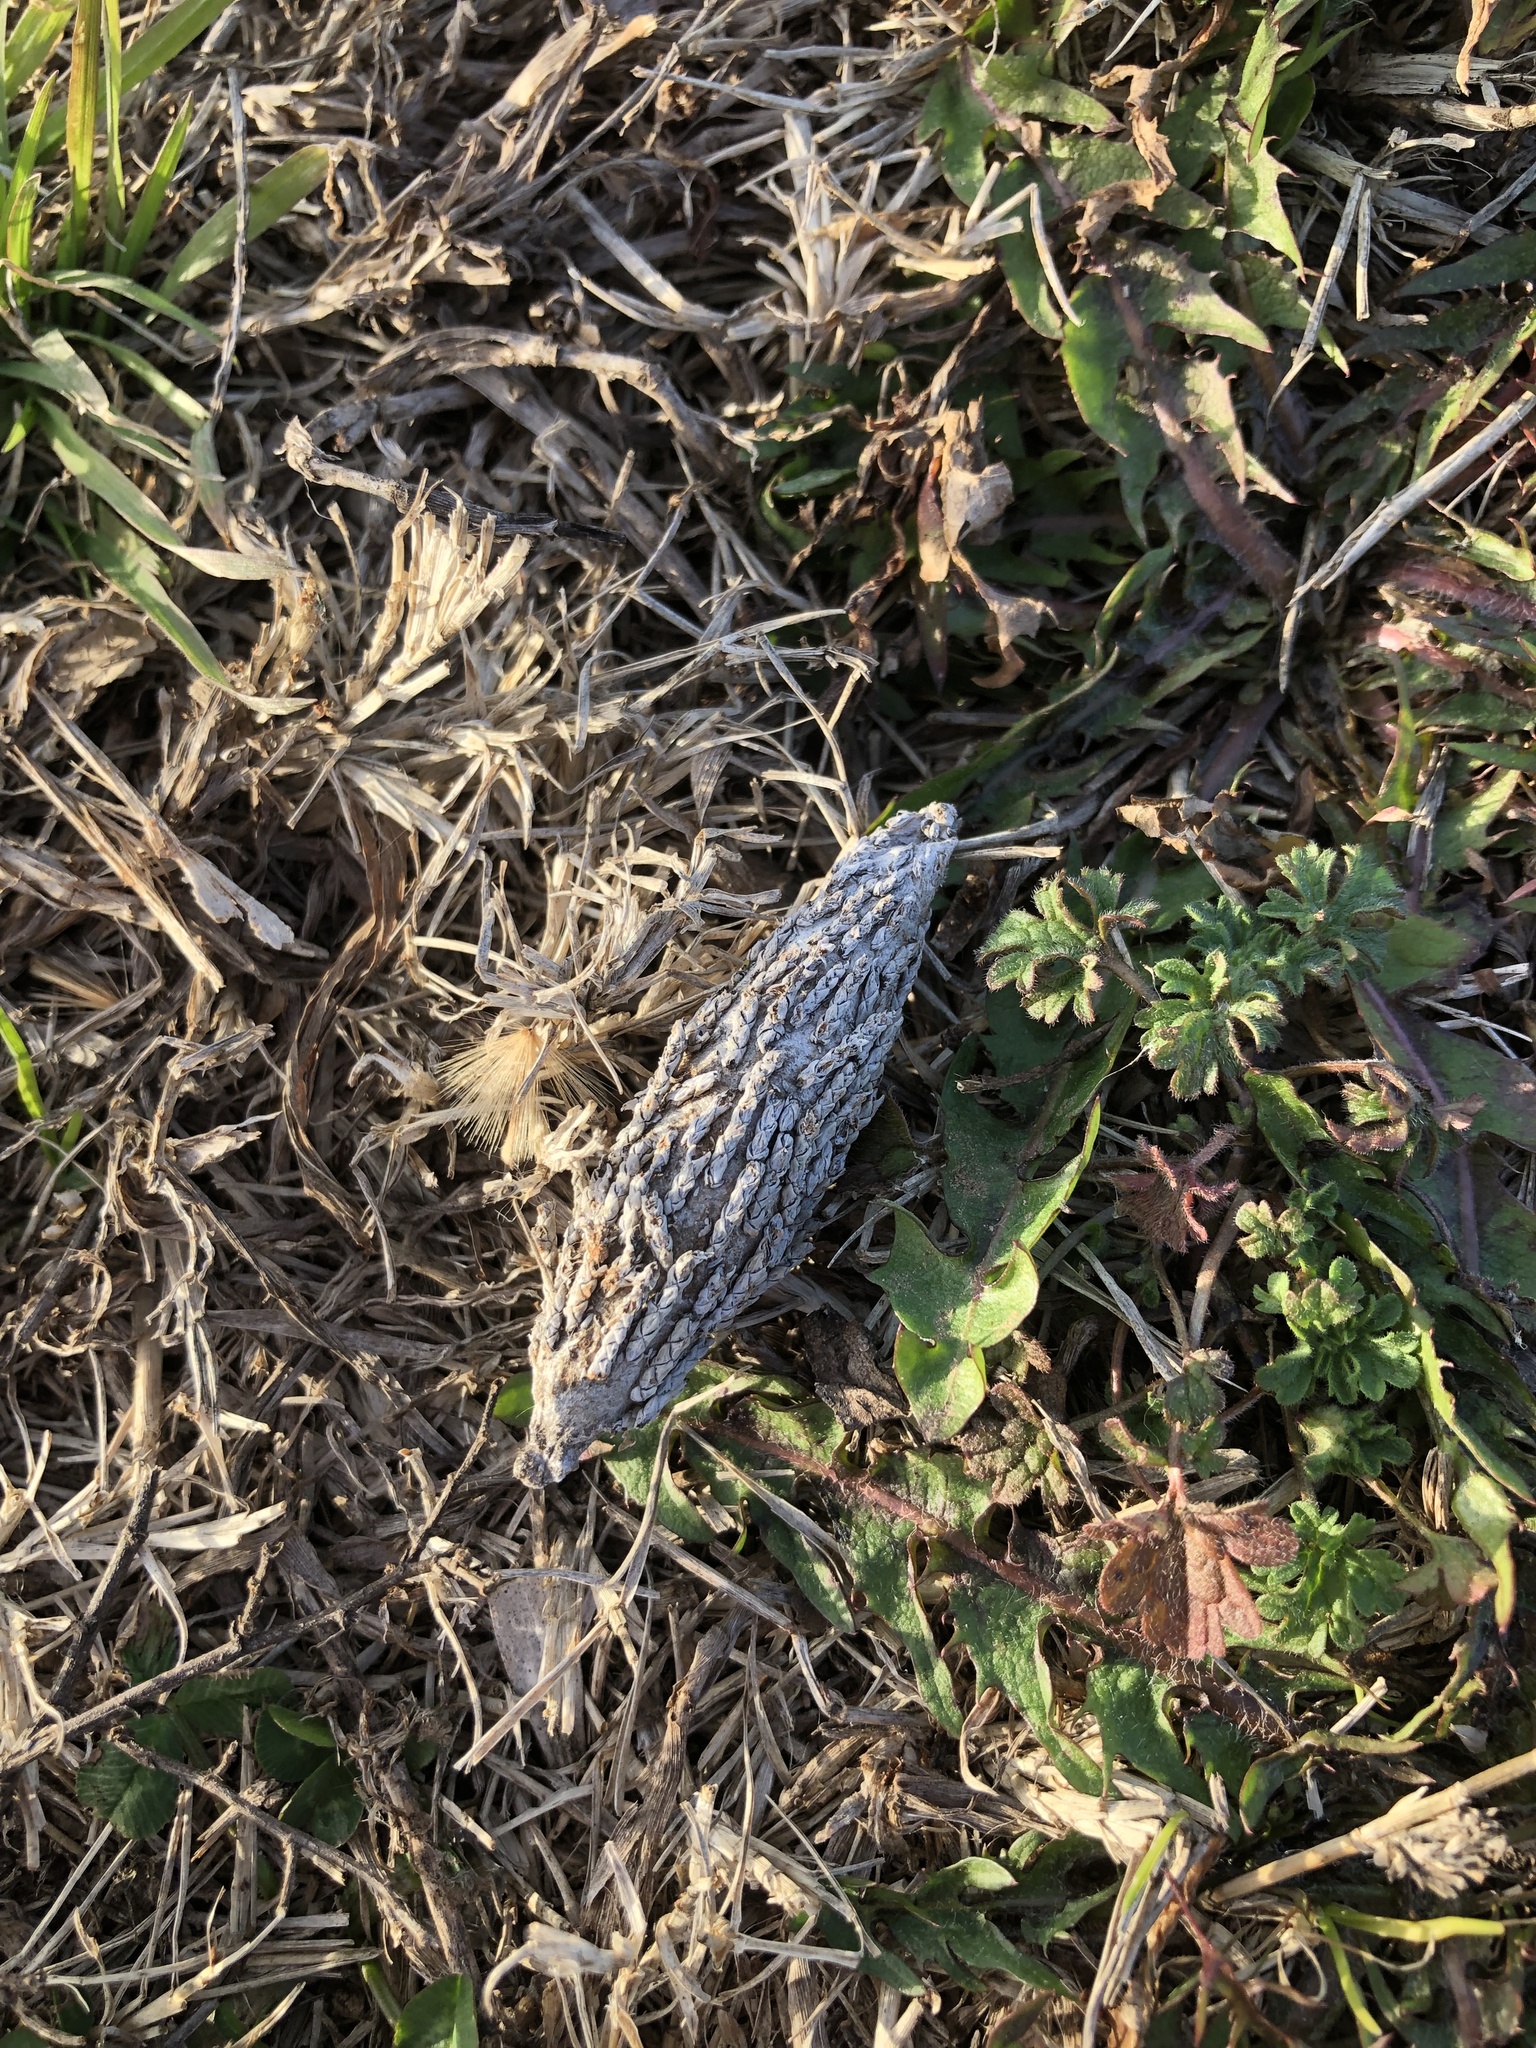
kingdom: Animalia
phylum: Arthropoda
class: Insecta
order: Lepidoptera
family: Psychidae
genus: Thyridopteryx
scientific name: Thyridopteryx ephemeraeformis
